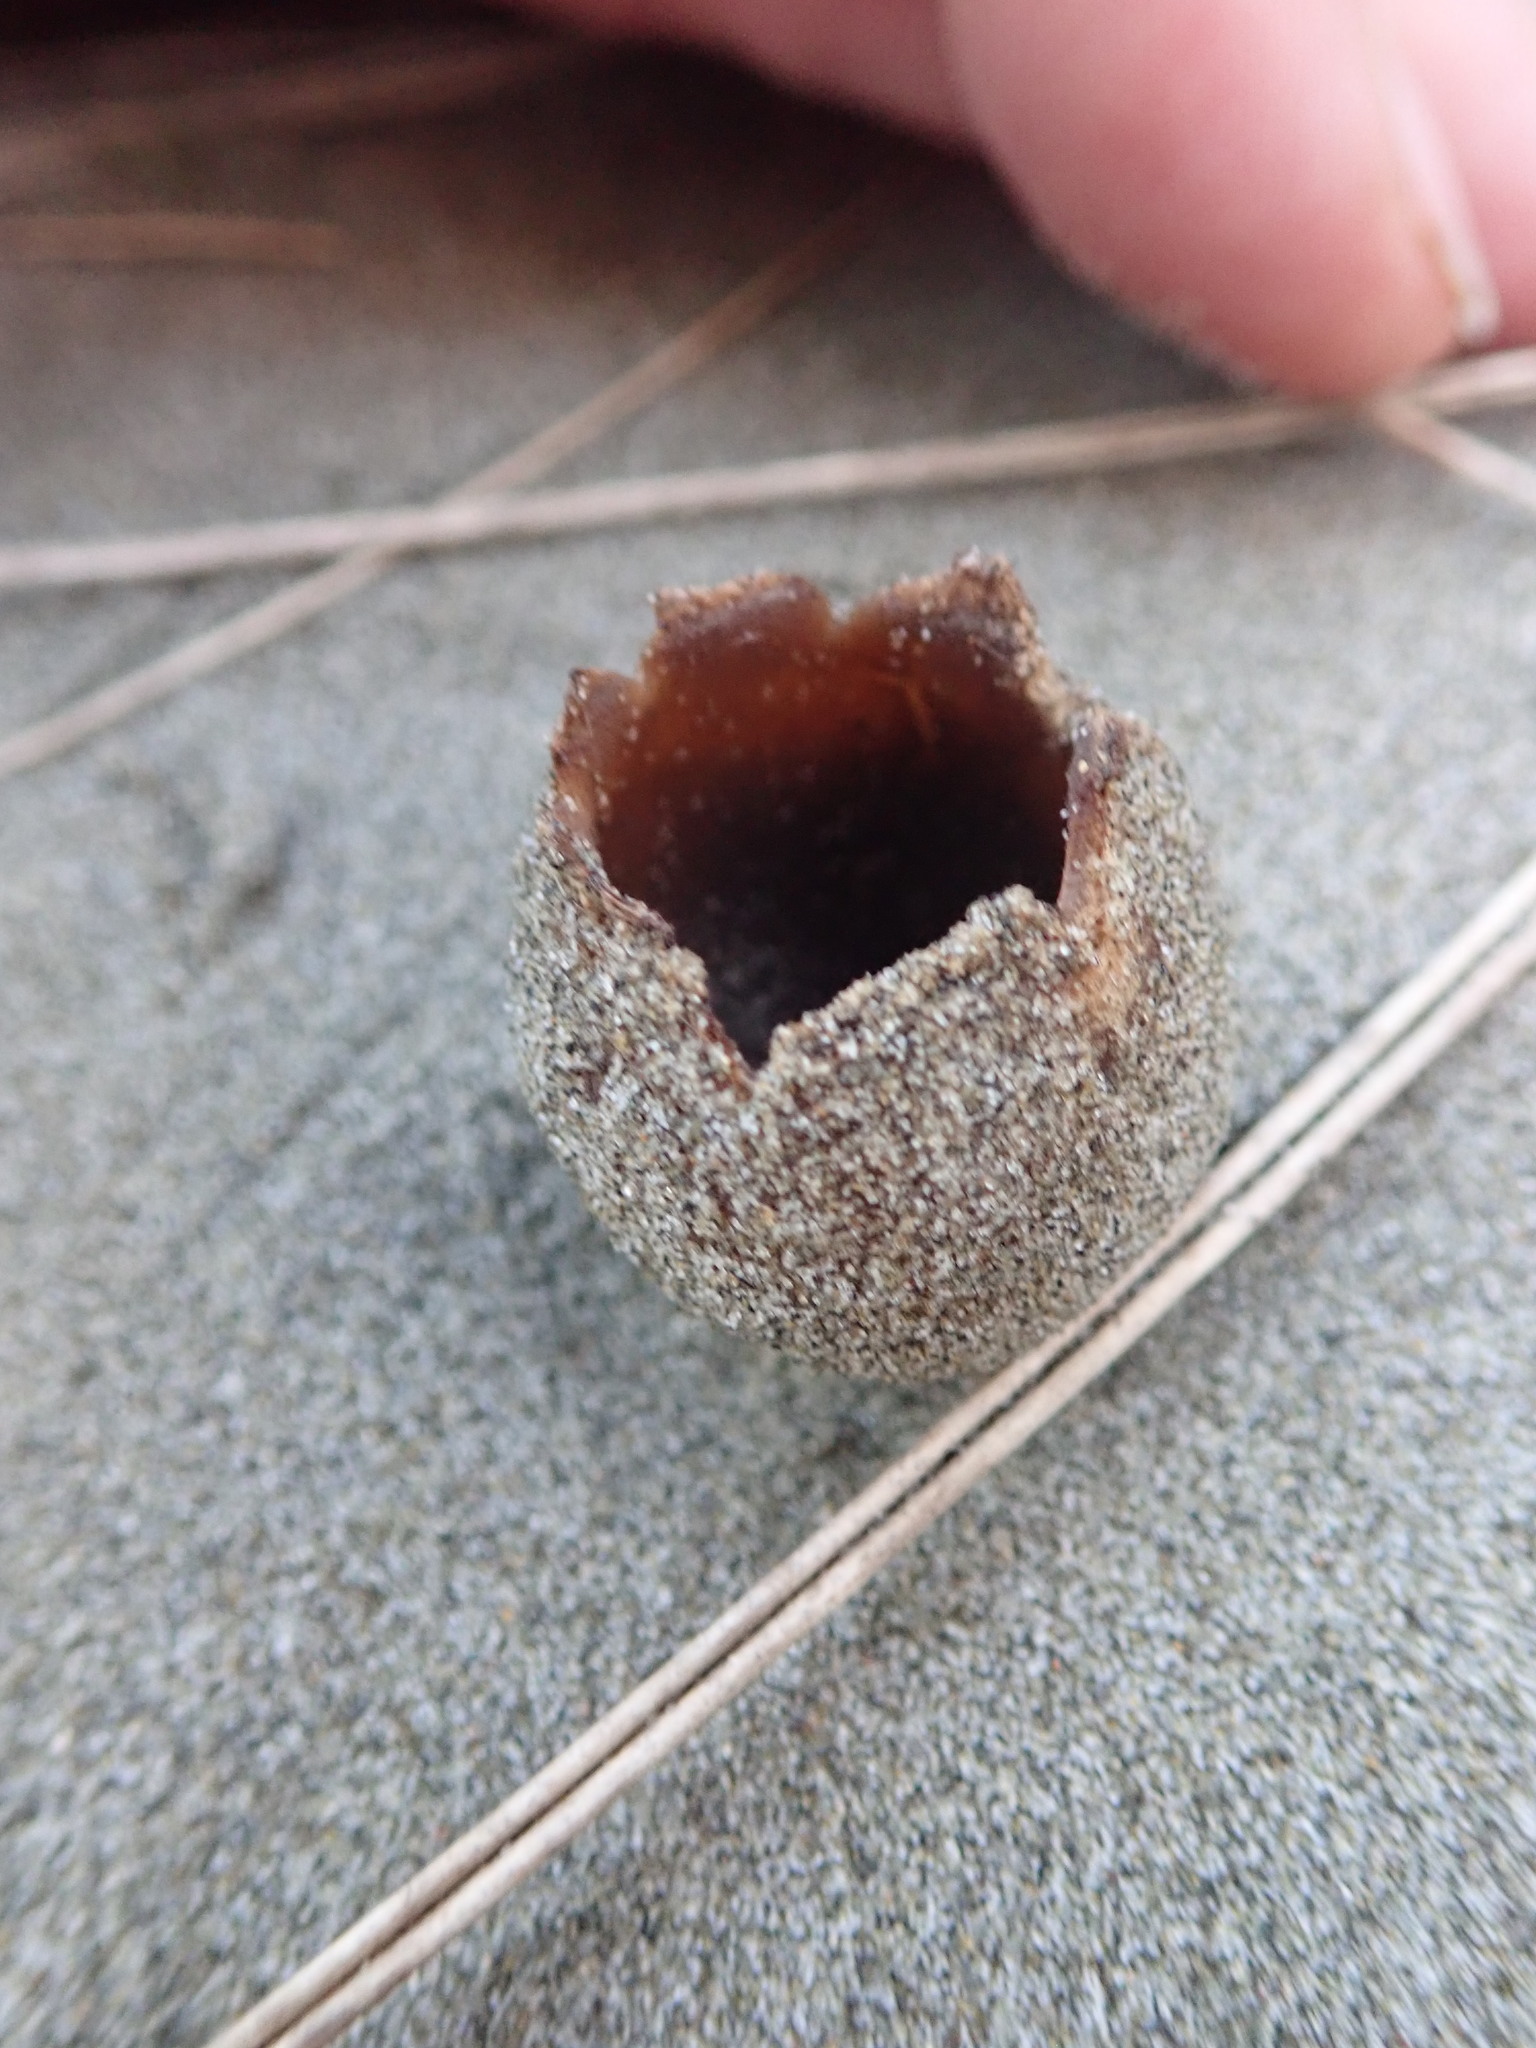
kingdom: Fungi
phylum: Ascomycota
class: Pezizomycetes
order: Pezizales
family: Pezizaceae
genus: Peziza
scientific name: Peziza oceanica
